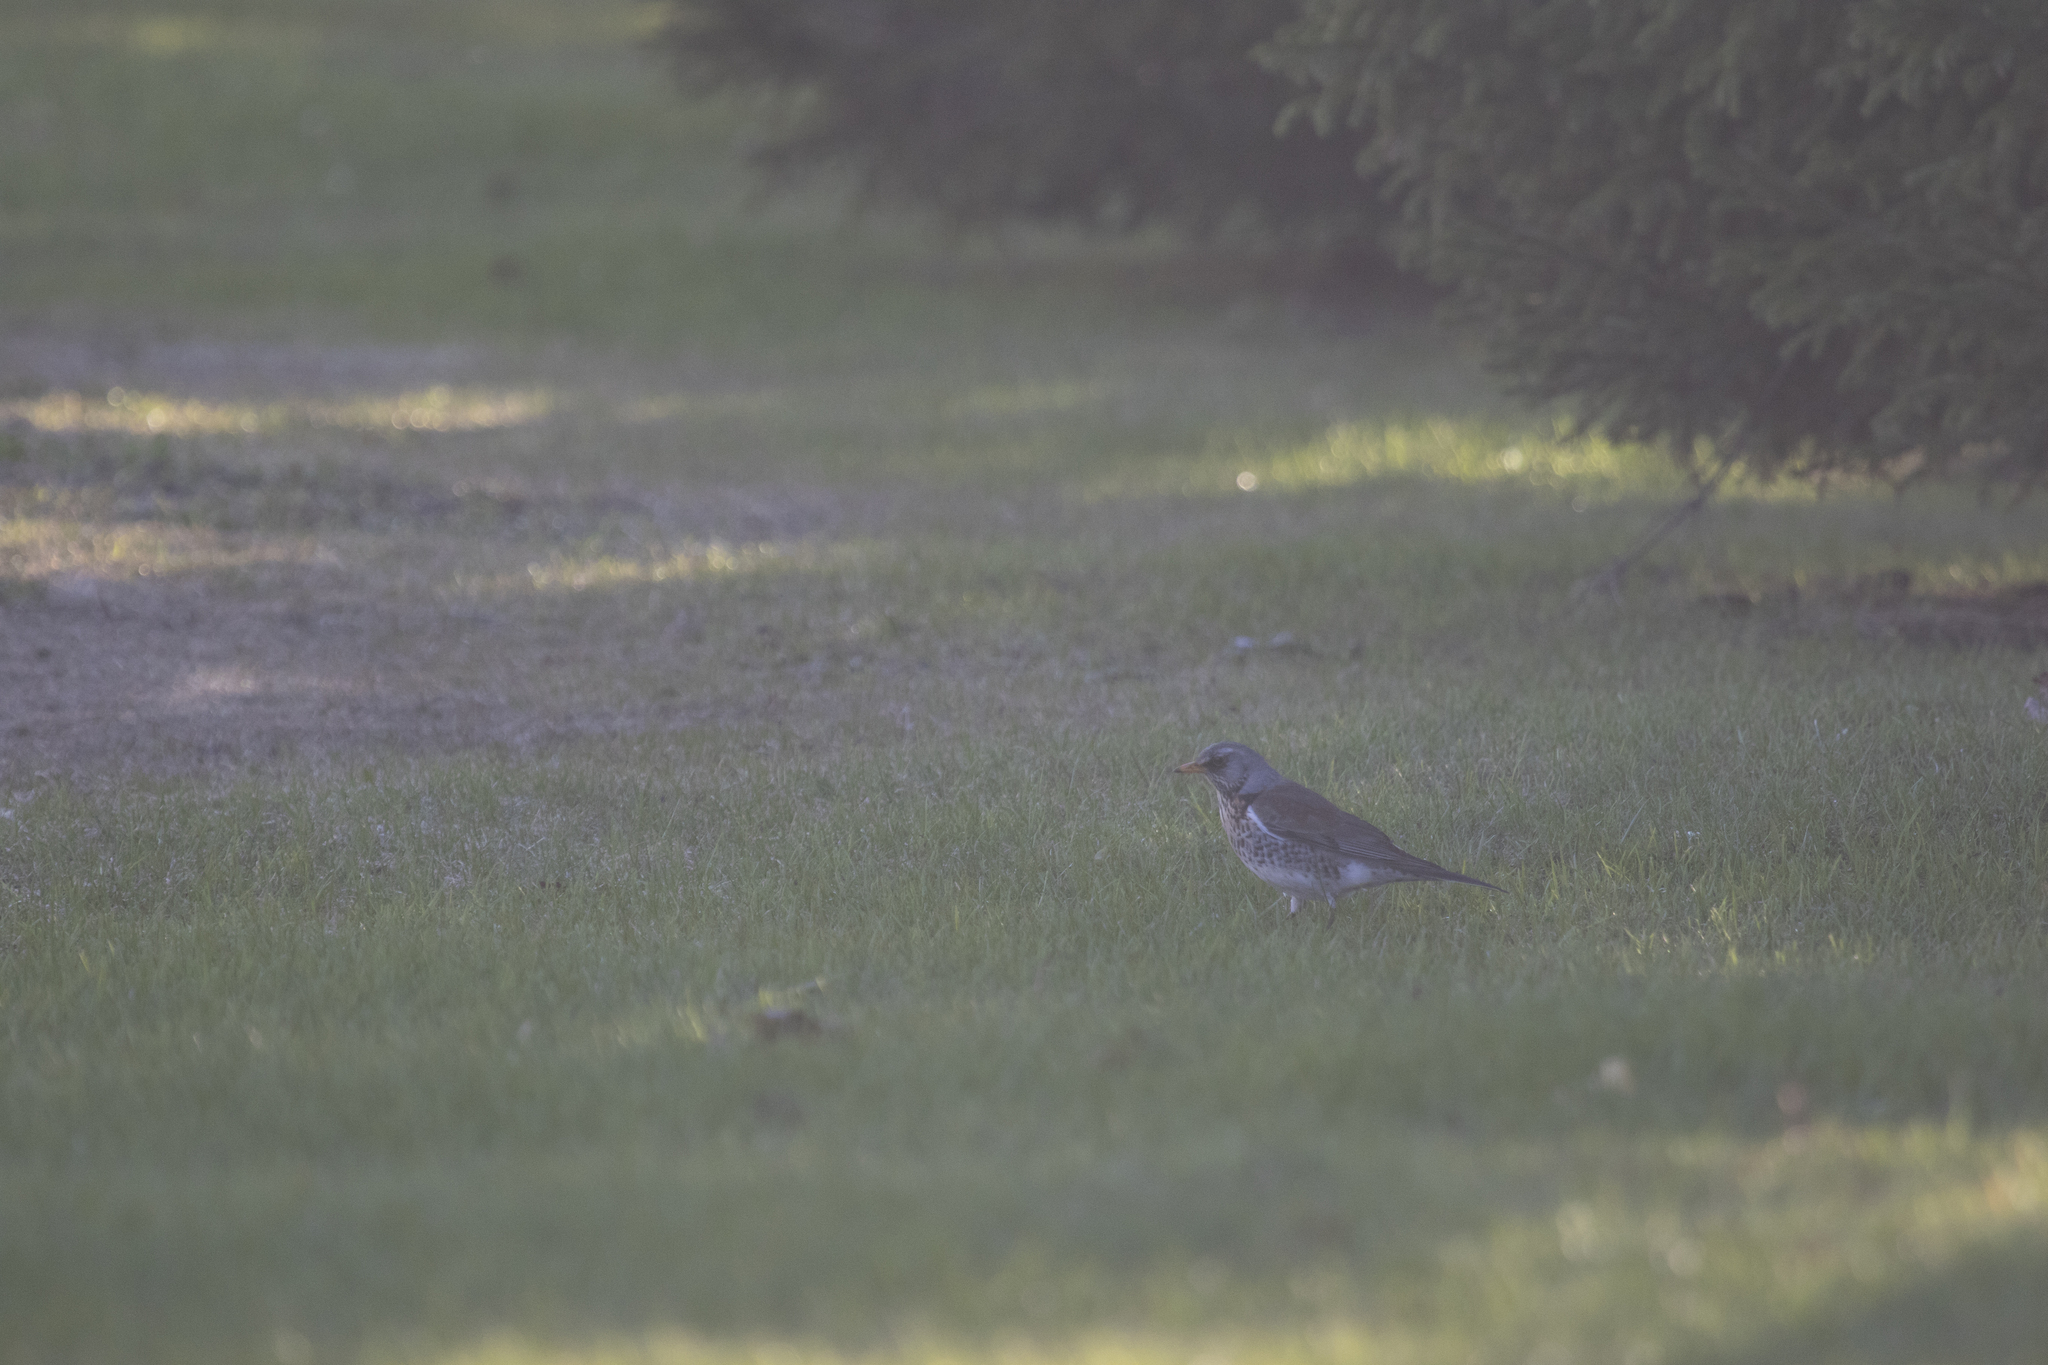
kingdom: Animalia
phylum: Chordata
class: Aves
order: Passeriformes
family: Turdidae
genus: Turdus
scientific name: Turdus pilaris
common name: Fieldfare
